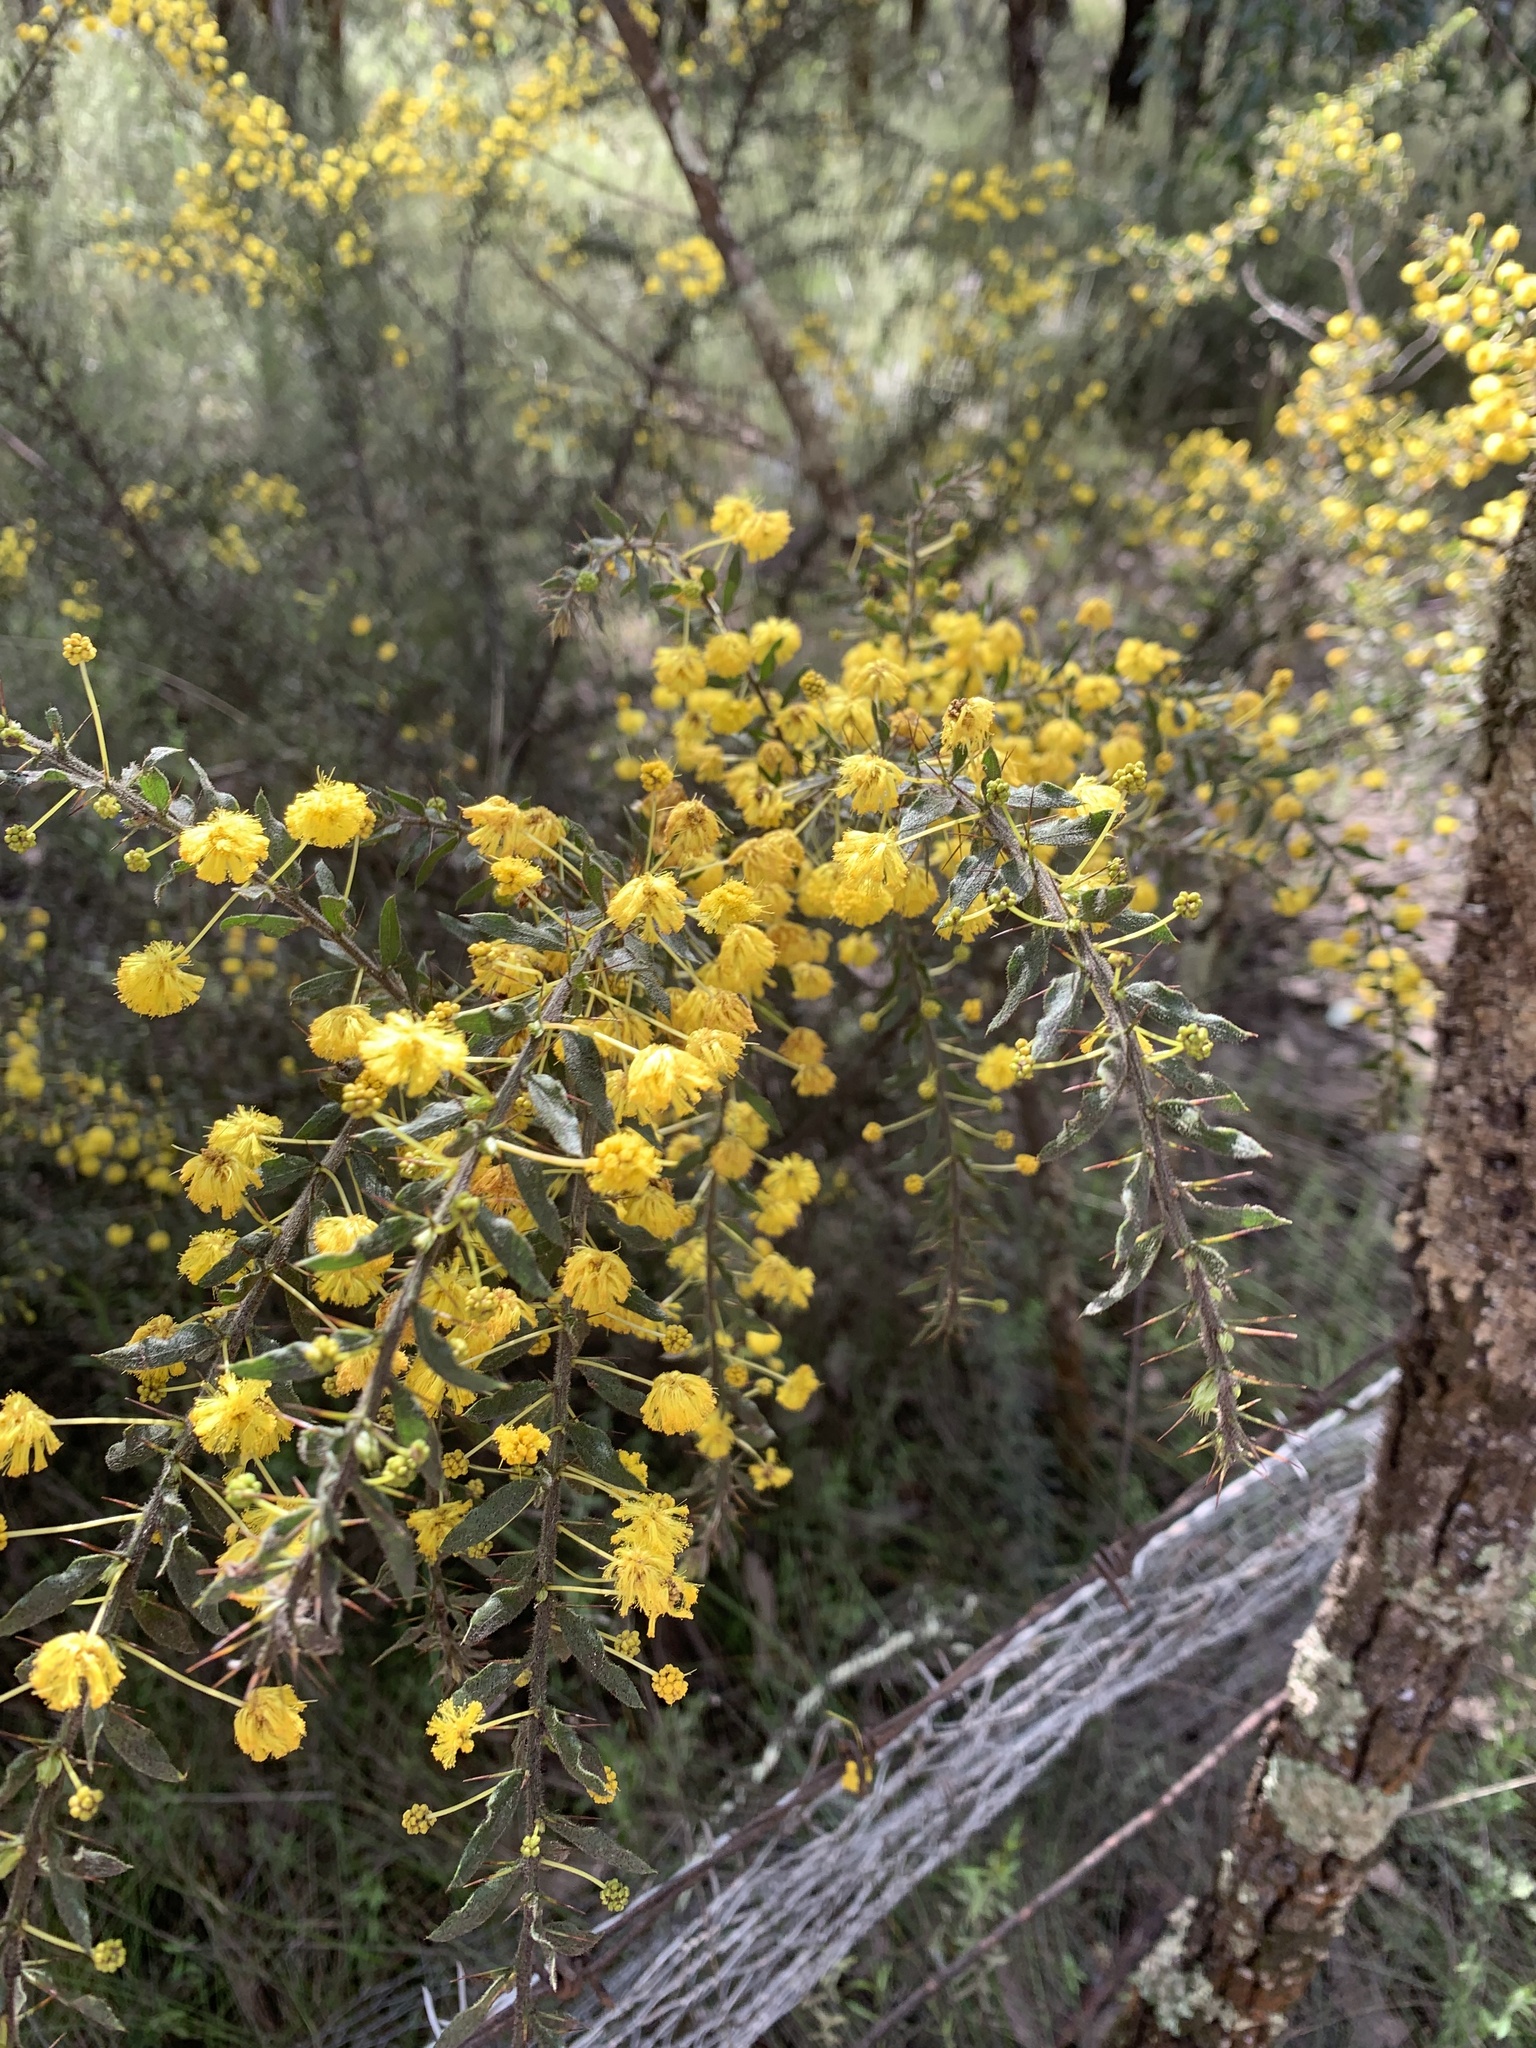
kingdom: Plantae
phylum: Tracheophyta
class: Magnoliopsida
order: Fabales
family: Fabaceae
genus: Acacia
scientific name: Acacia paradoxa
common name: Paradox acacia
